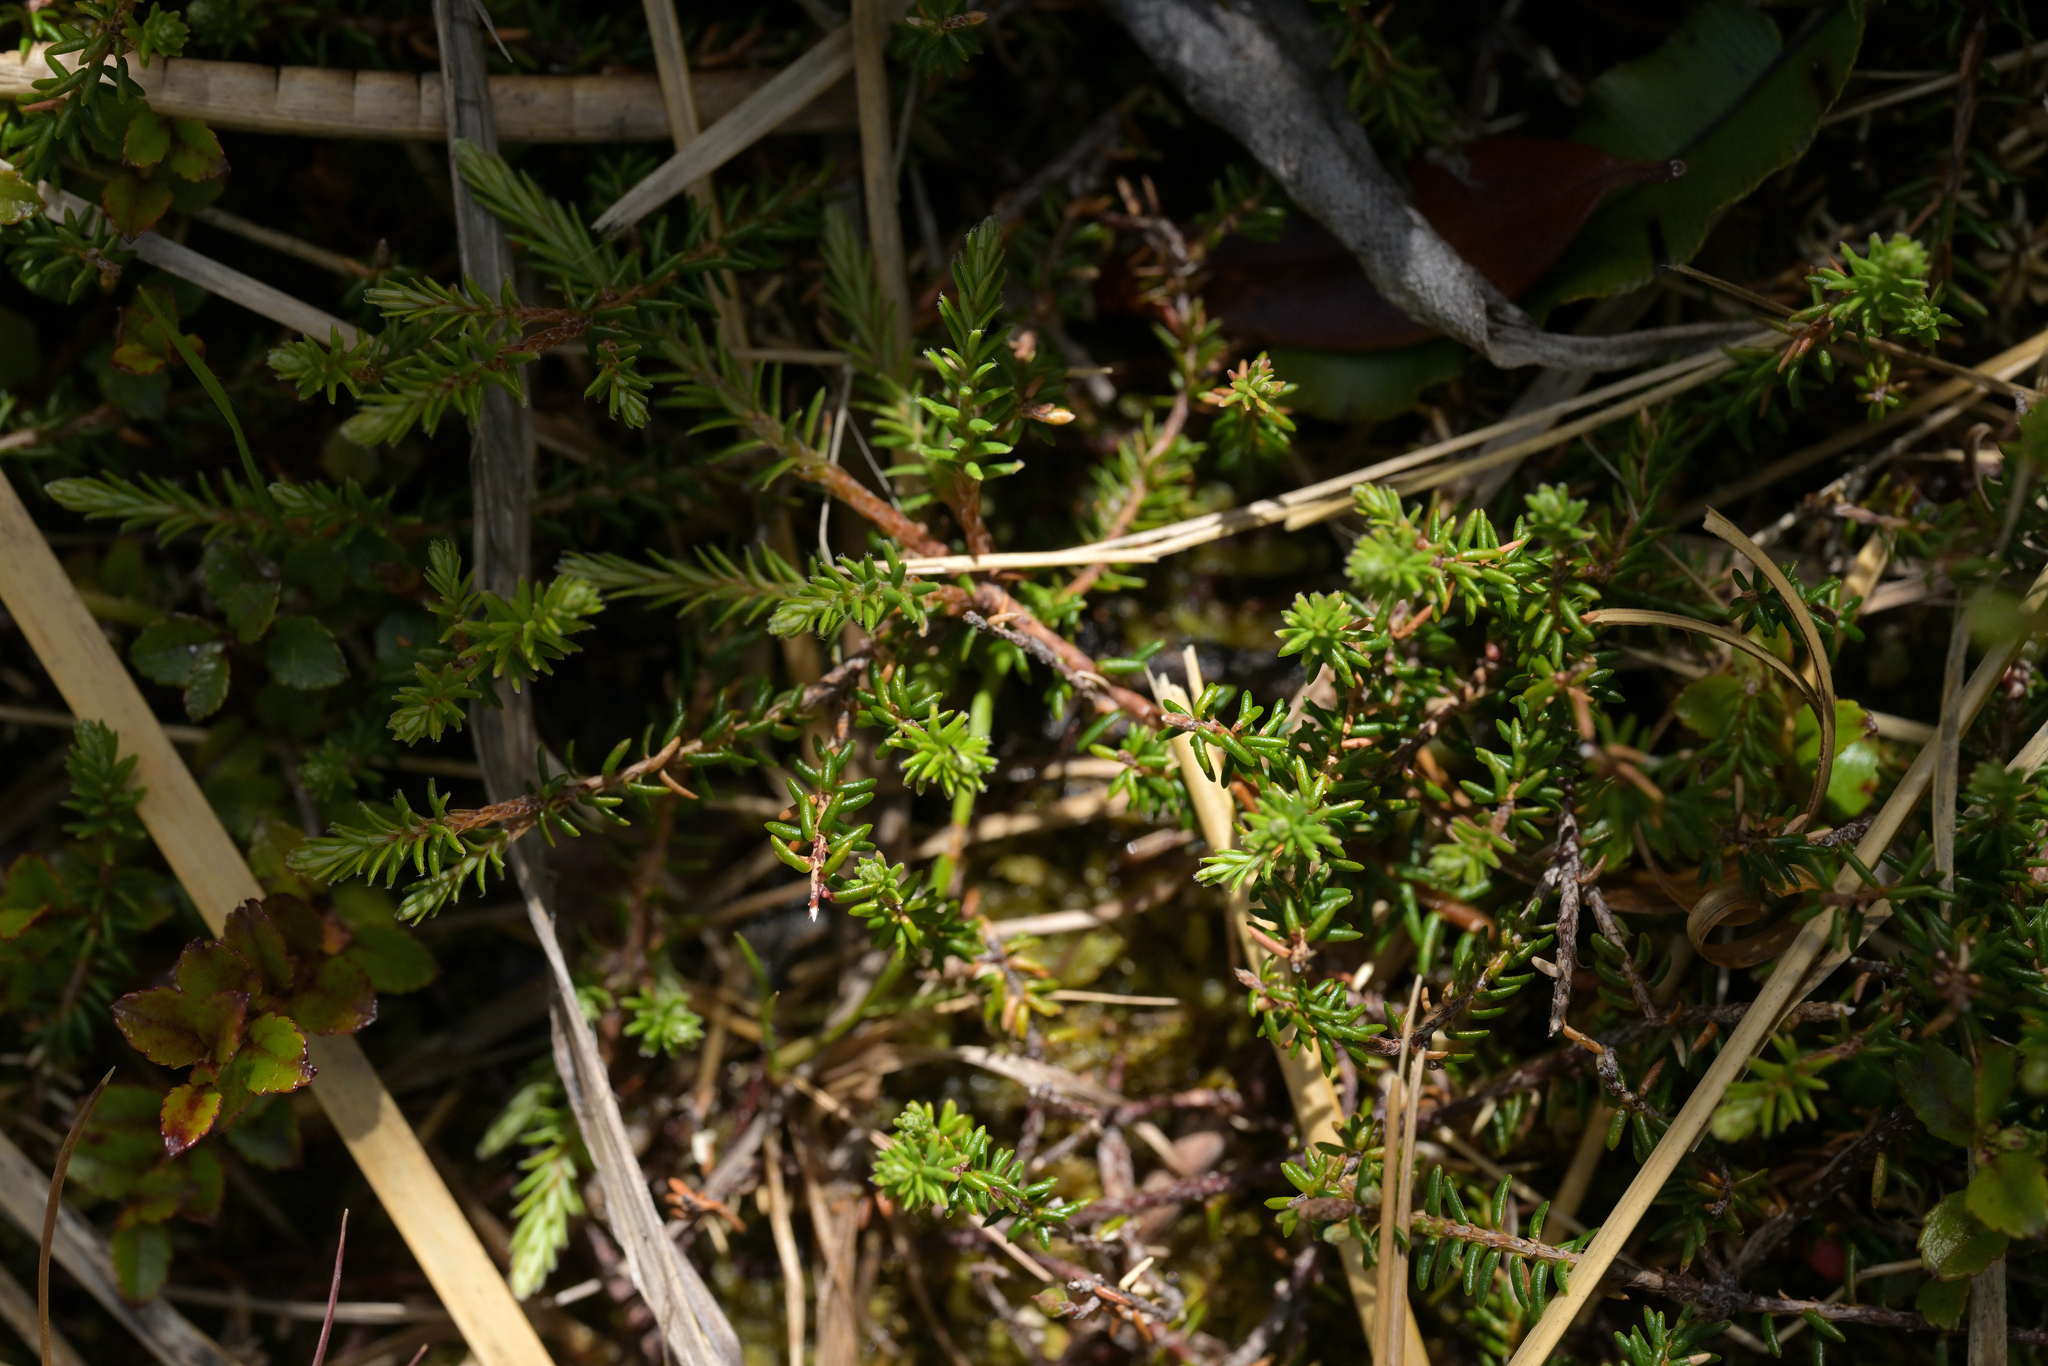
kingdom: Plantae
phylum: Tracheophyta
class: Magnoliopsida
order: Ericales
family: Ericaceae
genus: Androstoma
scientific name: Androstoma empetrifolia
